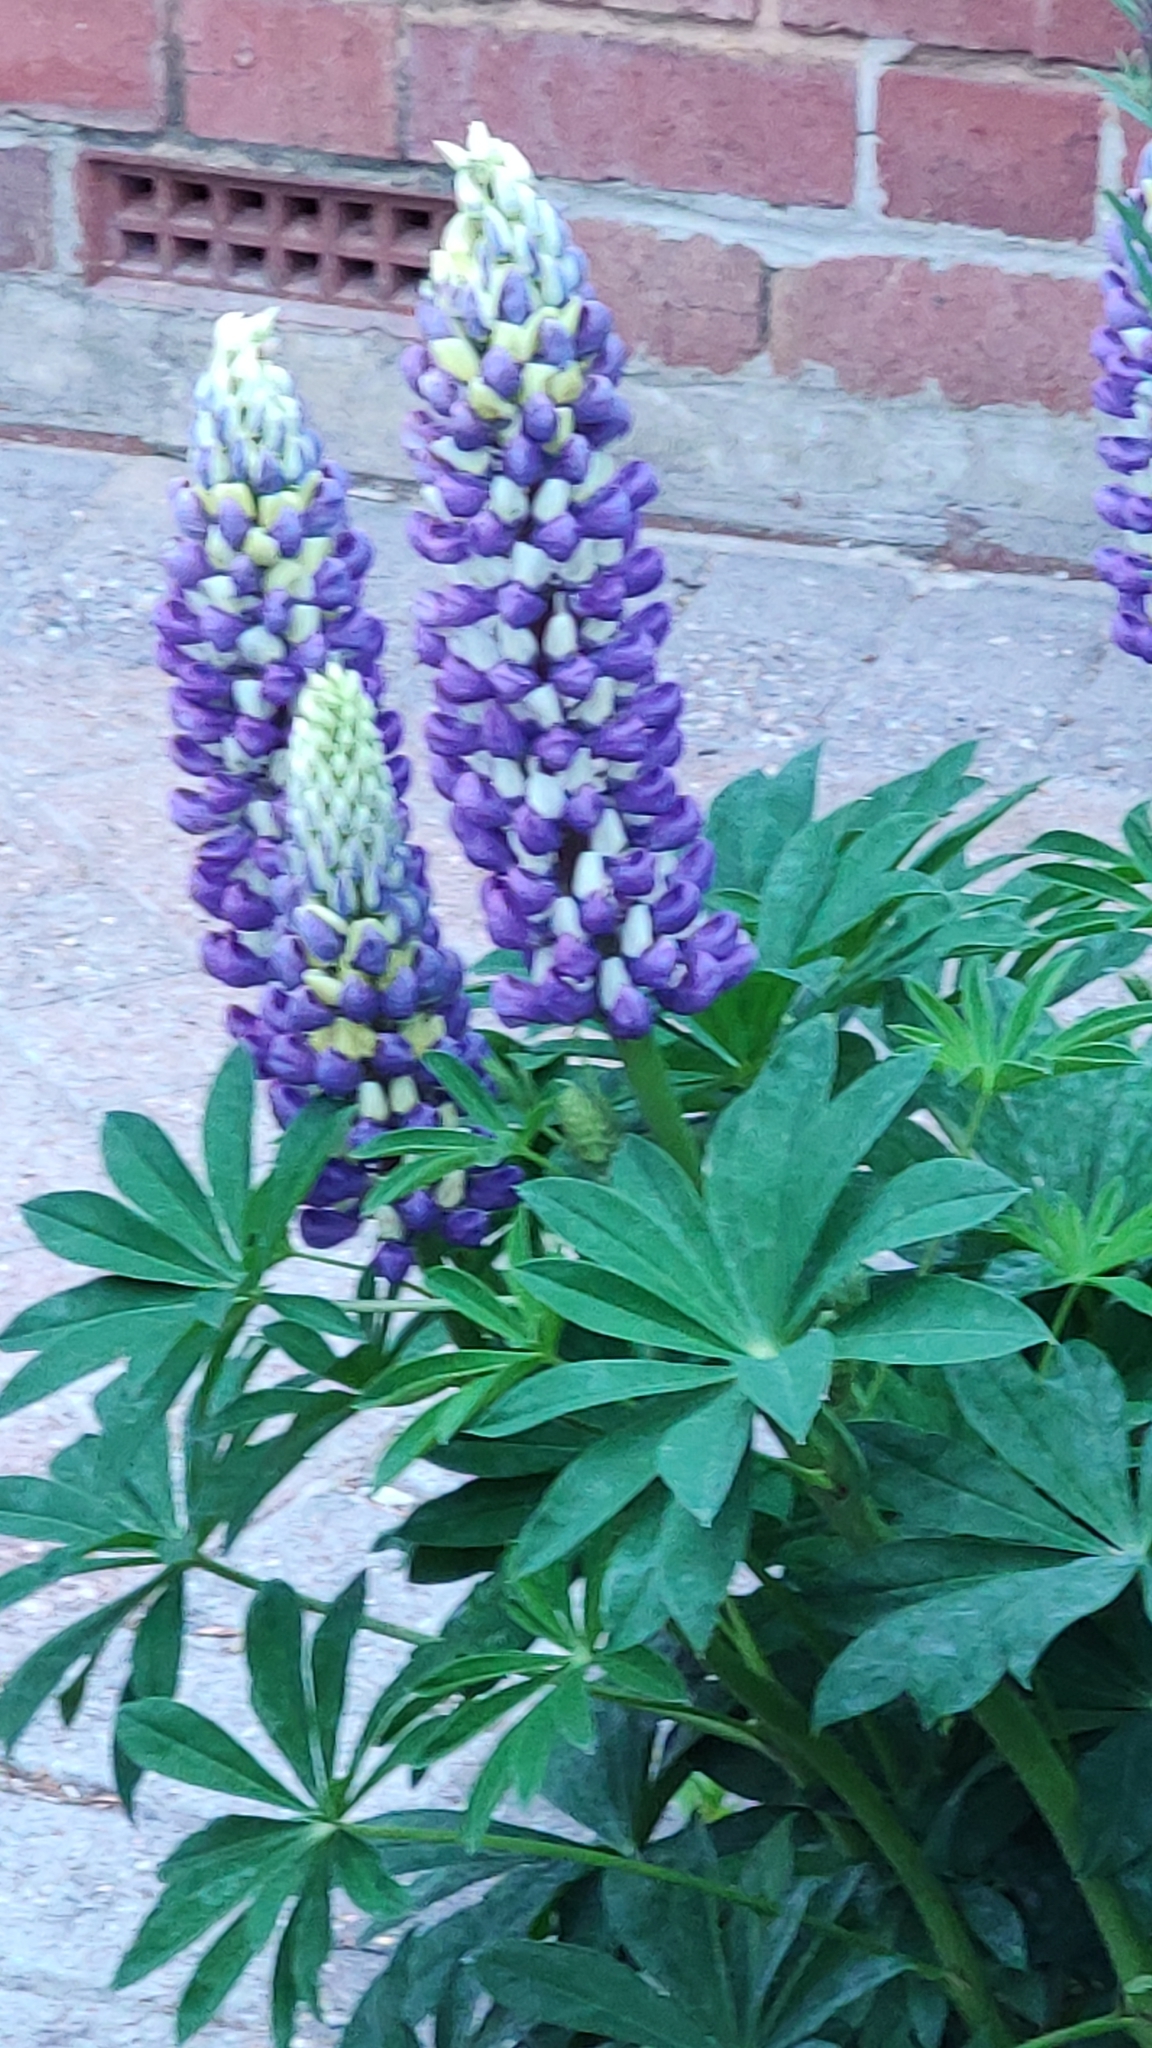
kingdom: Plantae
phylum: Tracheophyta
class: Magnoliopsida
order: Fabales
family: Fabaceae
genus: Lupinus
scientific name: Lupinus regalis
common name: Russell lupin
